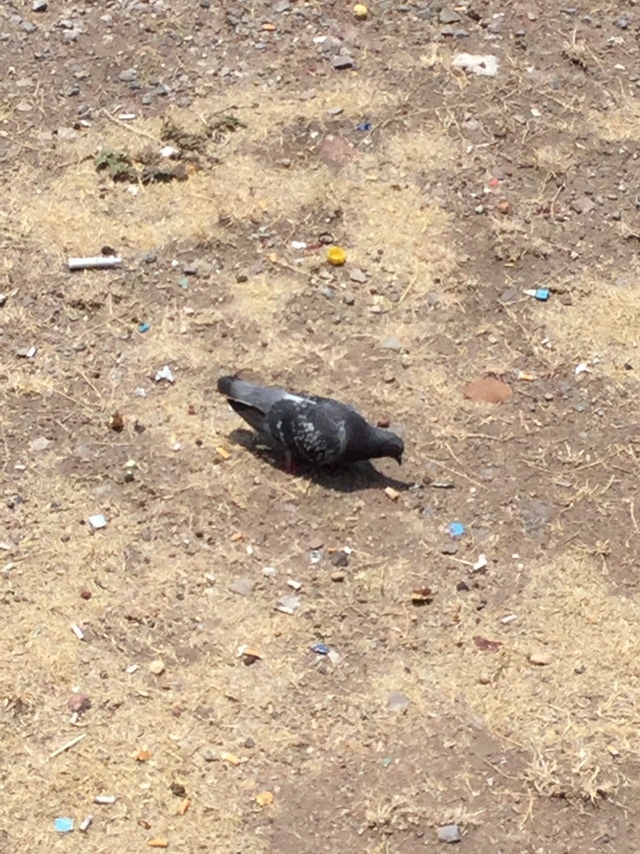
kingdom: Animalia
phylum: Chordata
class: Aves
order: Columbiformes
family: Columbidae
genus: Columba
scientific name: Columba livia
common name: Rock pigeon
